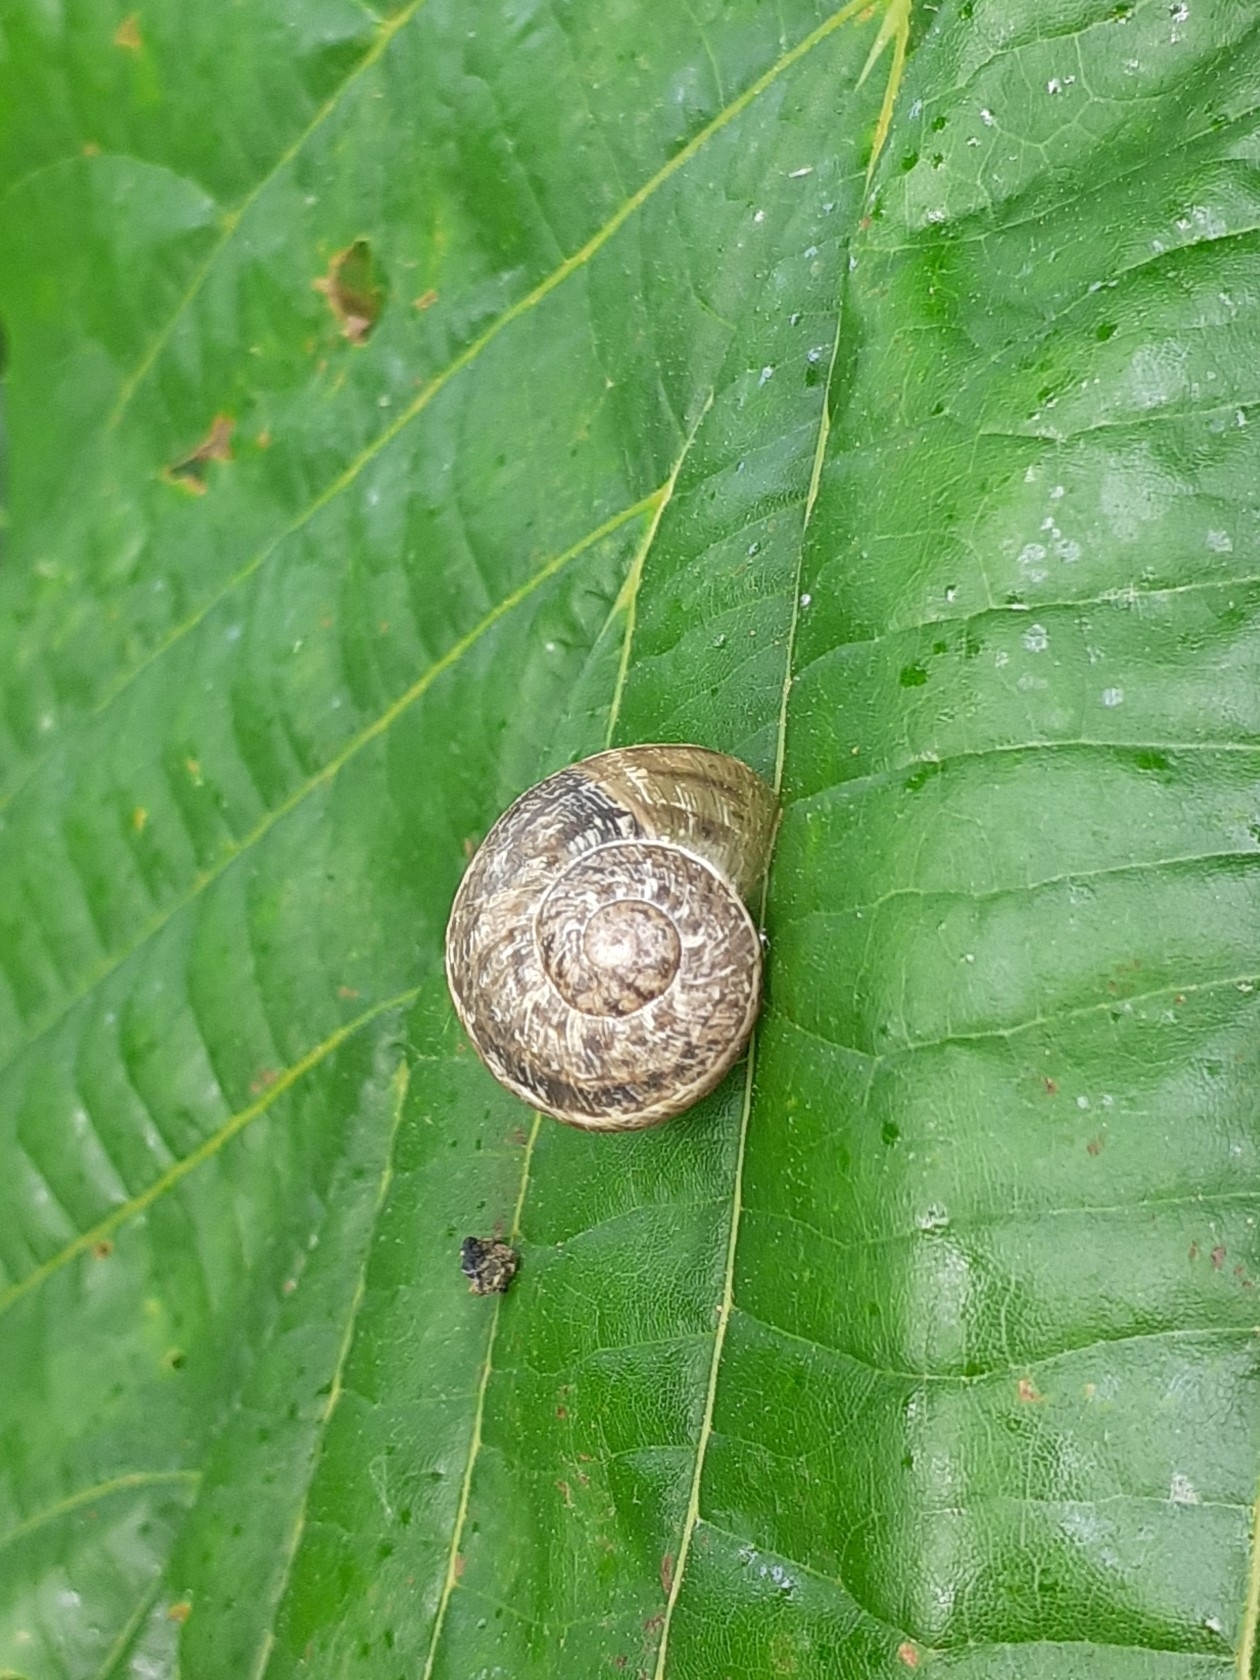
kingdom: Animalia
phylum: Mollusca
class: Gastropoda
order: Stylommatophora
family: Helicidae
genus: Cornu
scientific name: Cornu aspersum
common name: Brown garden snail
